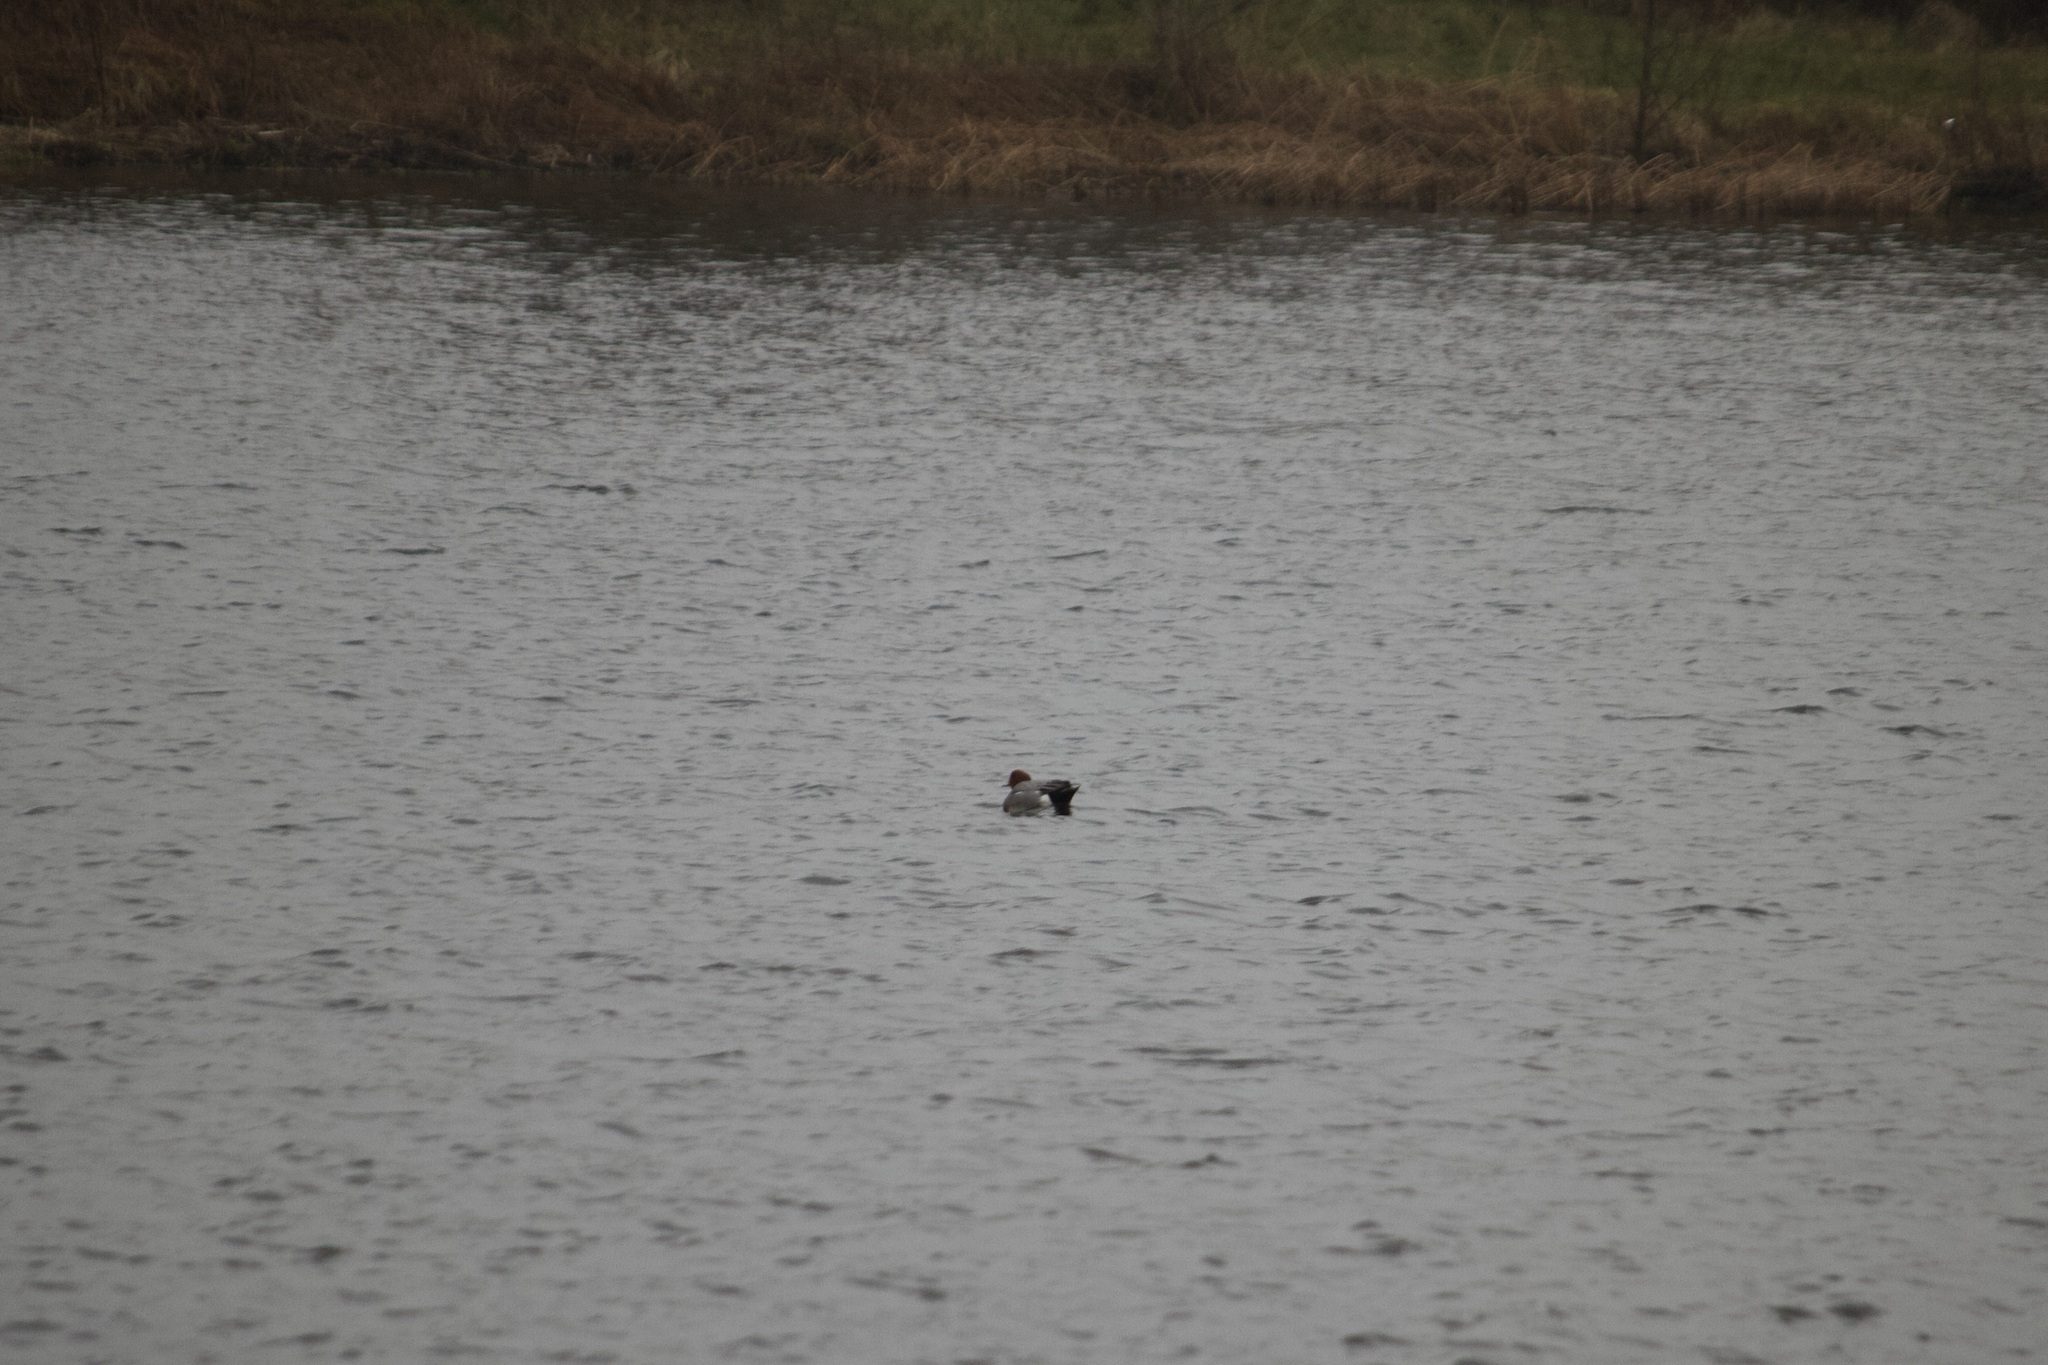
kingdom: Animalia
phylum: Chordata
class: Aves
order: Anseriformes
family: Anatidae
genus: Mareca
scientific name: Mareca penelope
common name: Eurasian wigeon
